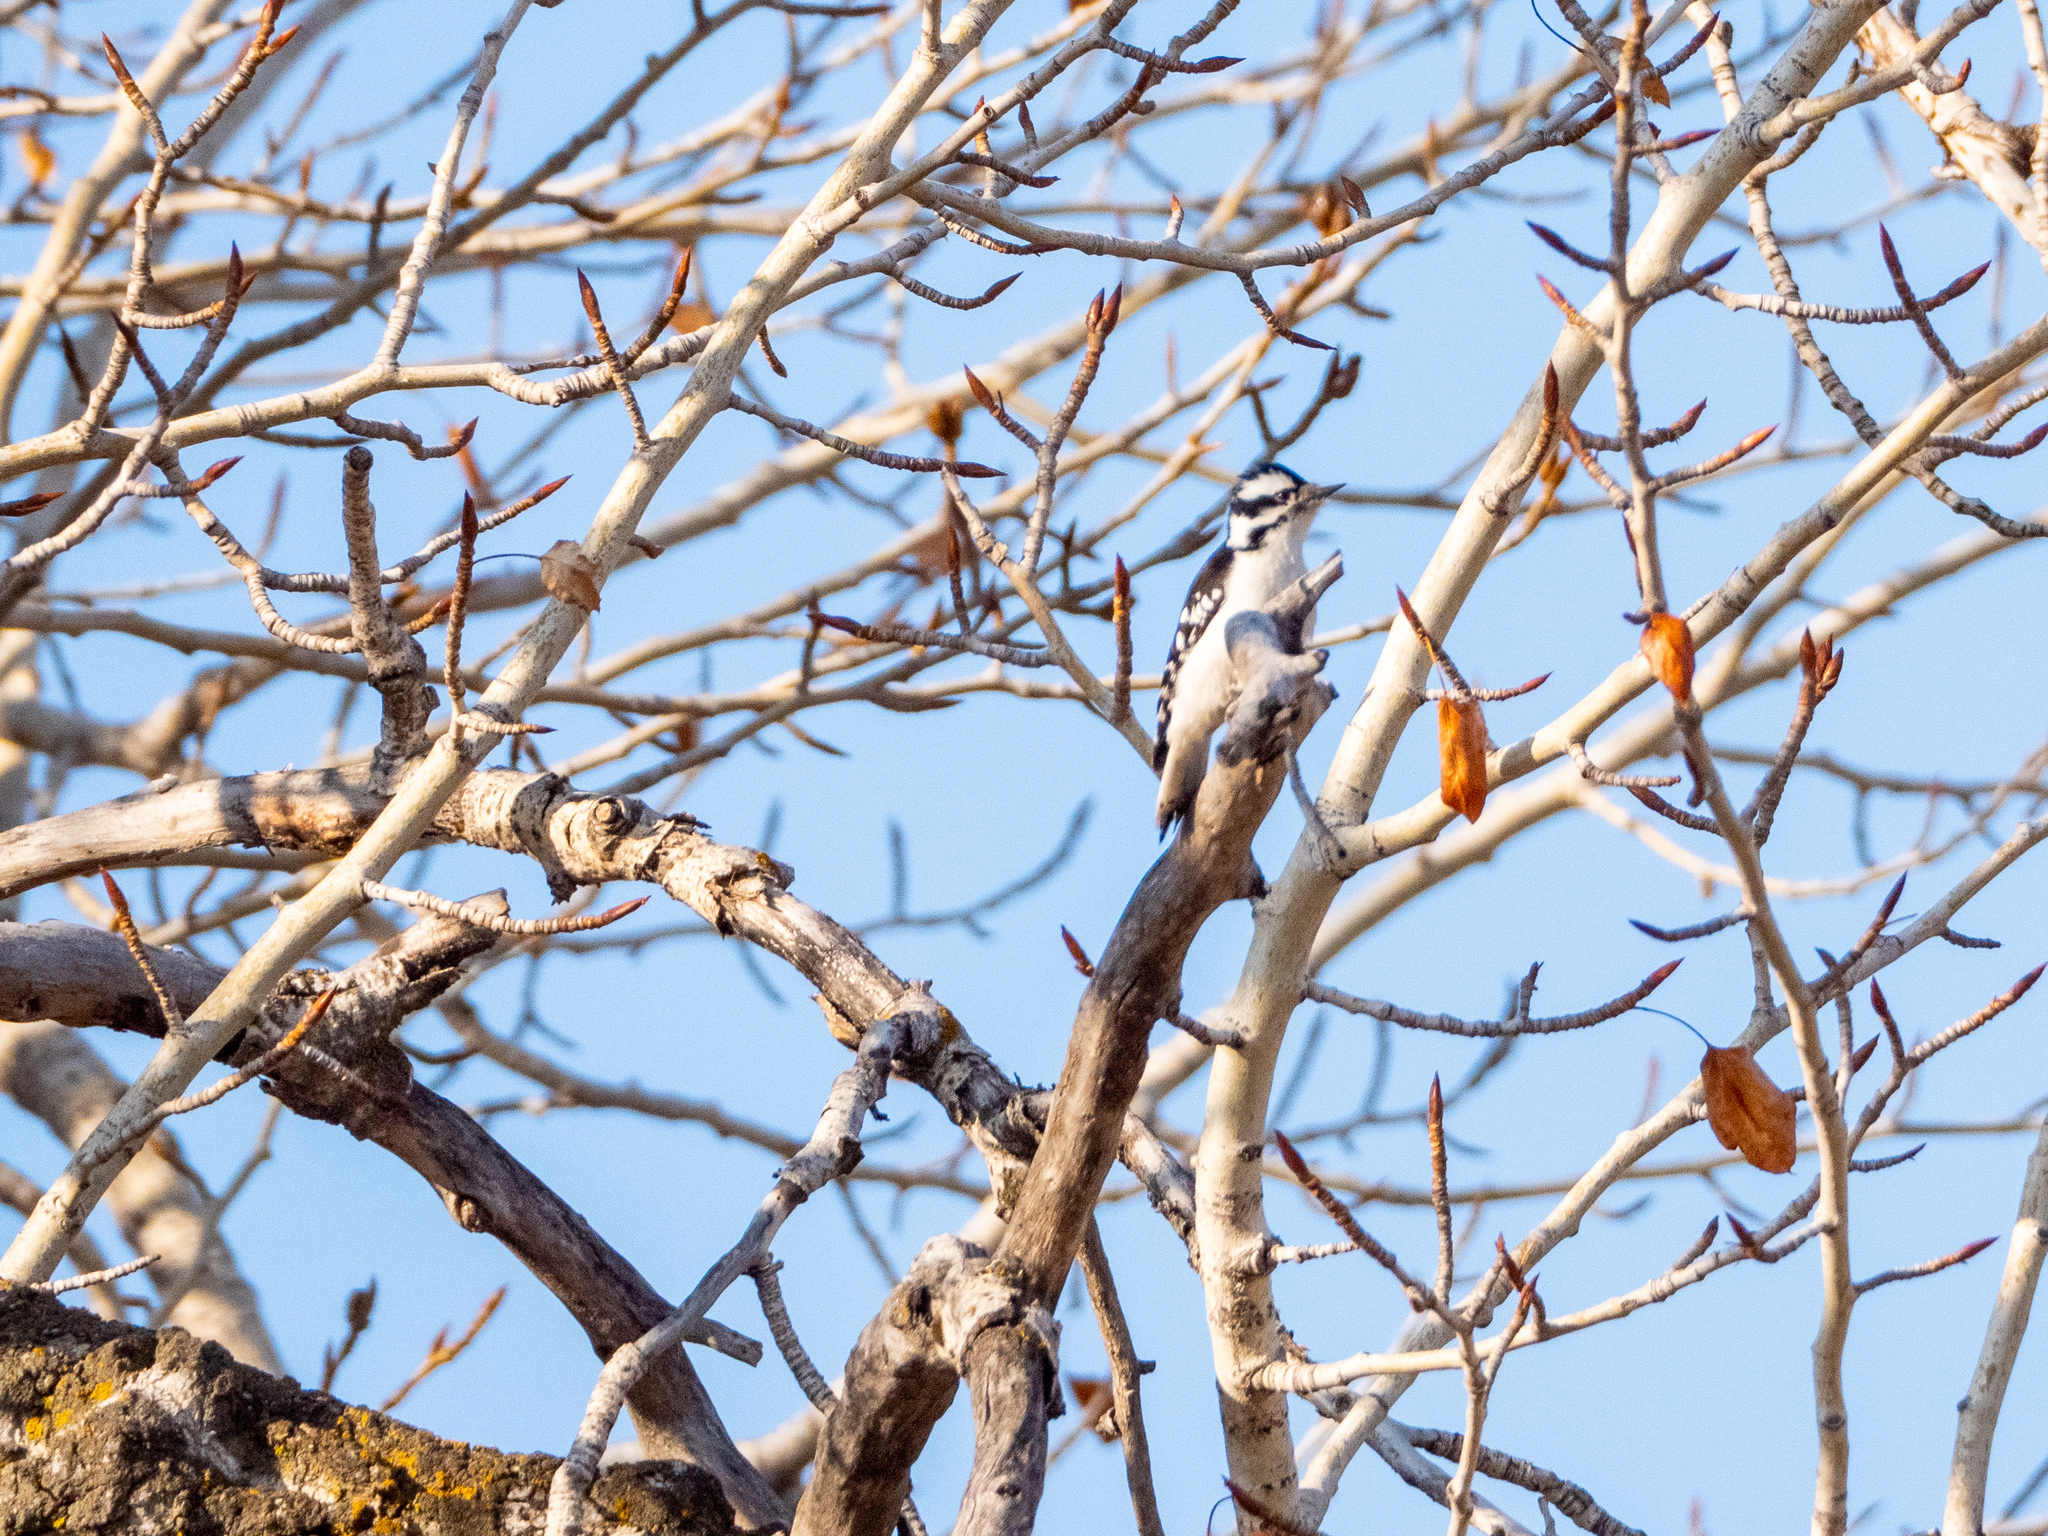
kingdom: Animalia
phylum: Chordata
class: Aves
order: Piciformes
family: Picidae
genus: Dryobates
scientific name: Dryobates pubescens
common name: Downy woodpecker
